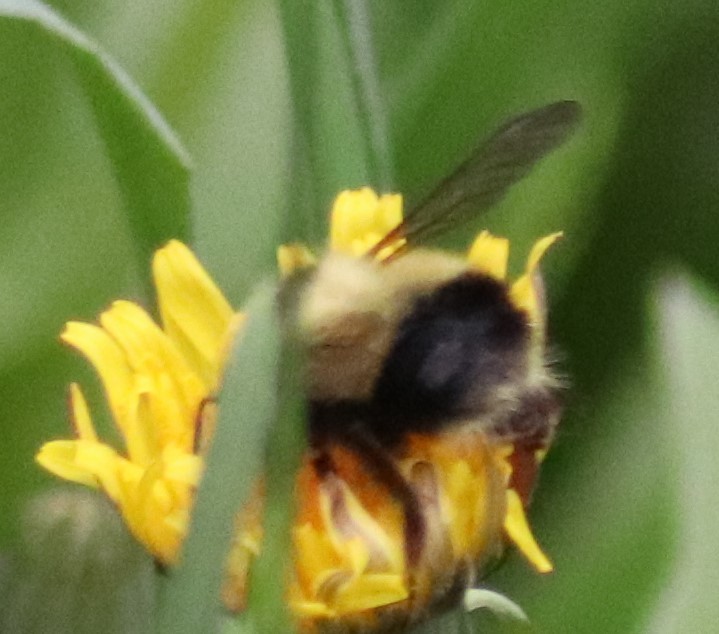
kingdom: Animalia
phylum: Arthropoda
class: Insecta
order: Hymenoptera
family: Apidae
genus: Bombus
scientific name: Bombus vagans
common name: Half-black bumble bee
